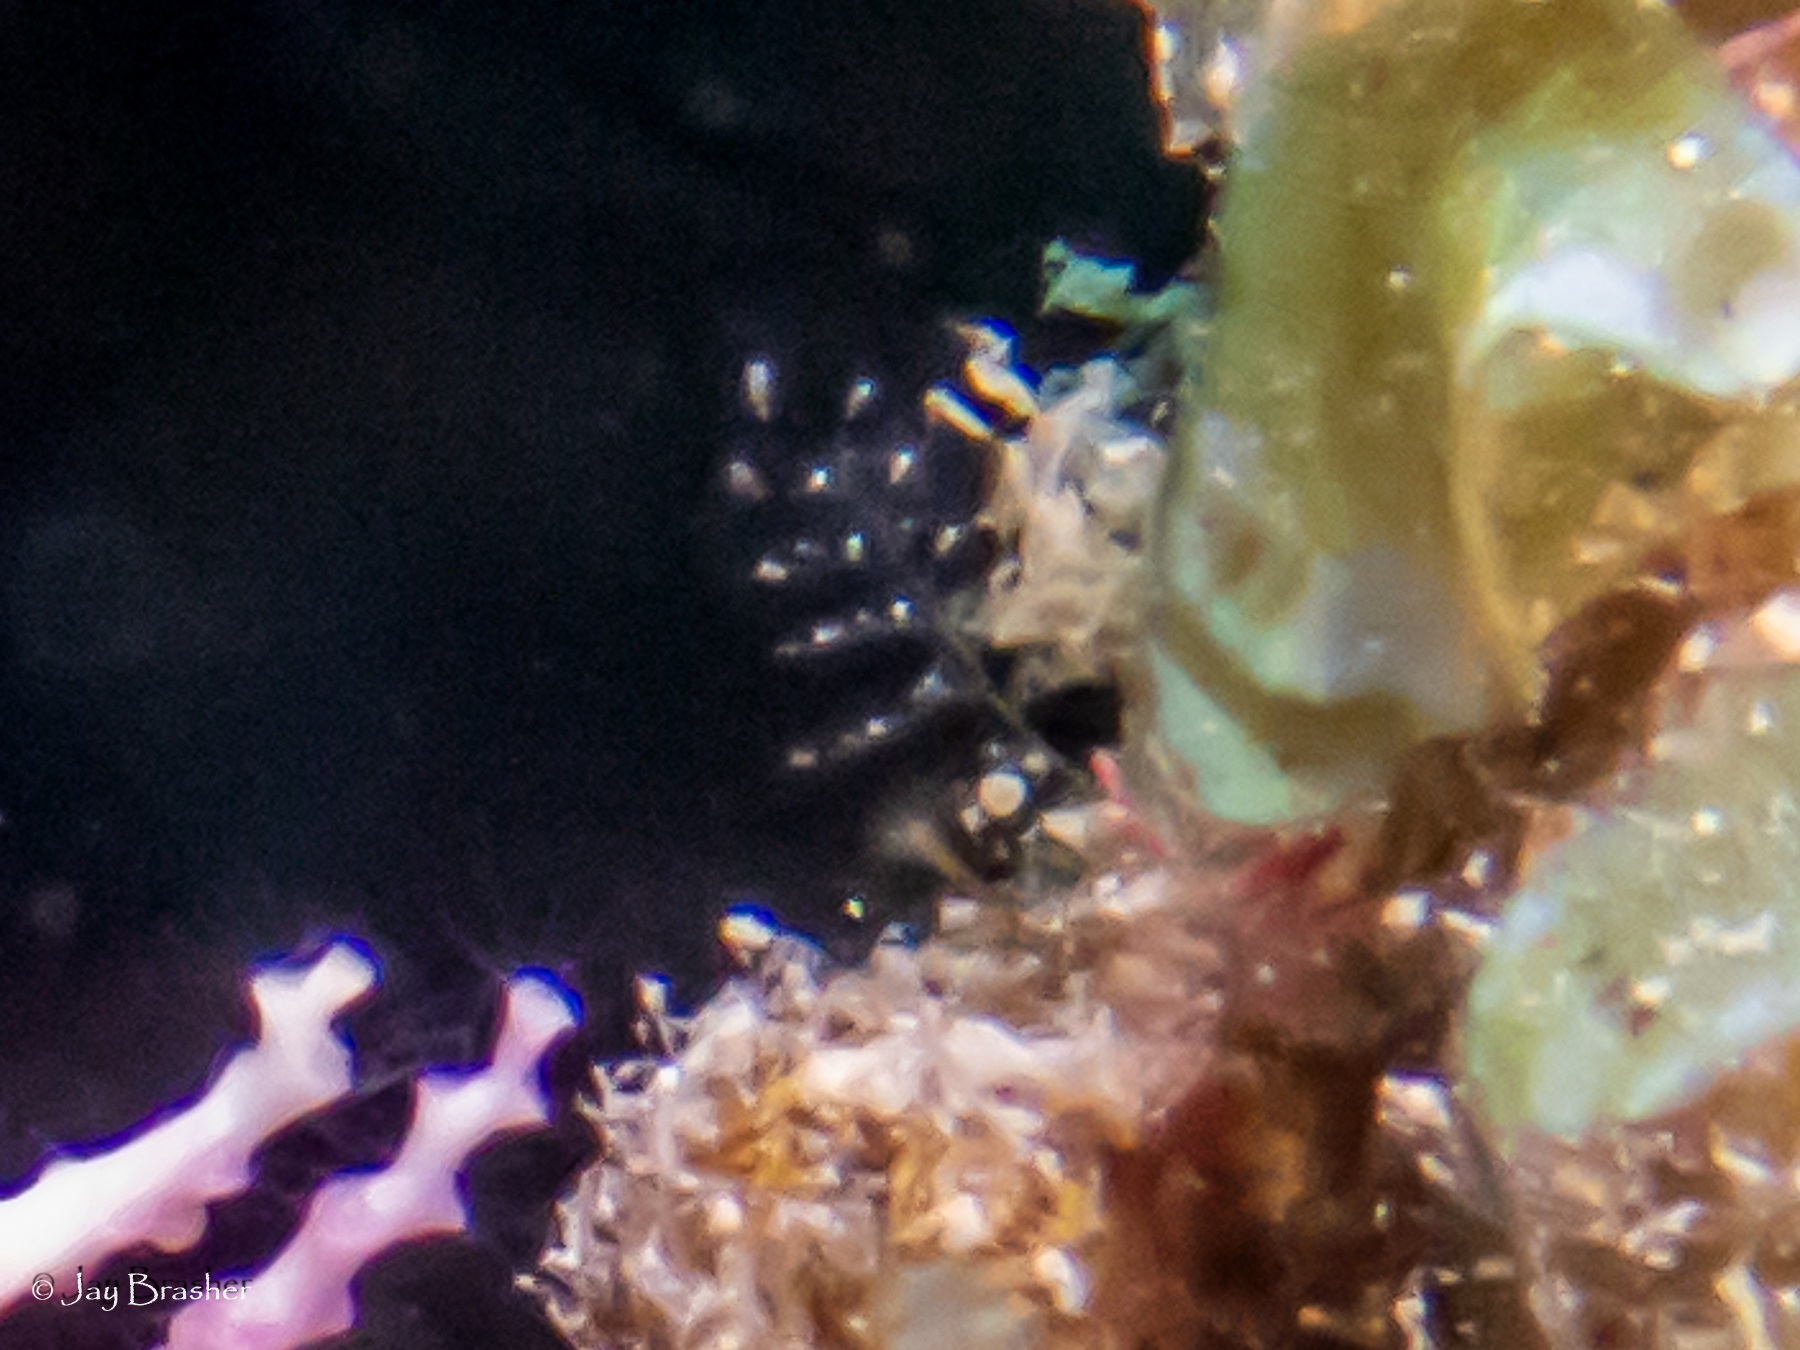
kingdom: Animalia
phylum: Cnidaria
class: Hydrozoa
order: Anthoathecata
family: Pennariidae
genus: Pennaria
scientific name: Pennaria disticha
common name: Feather hydroid
